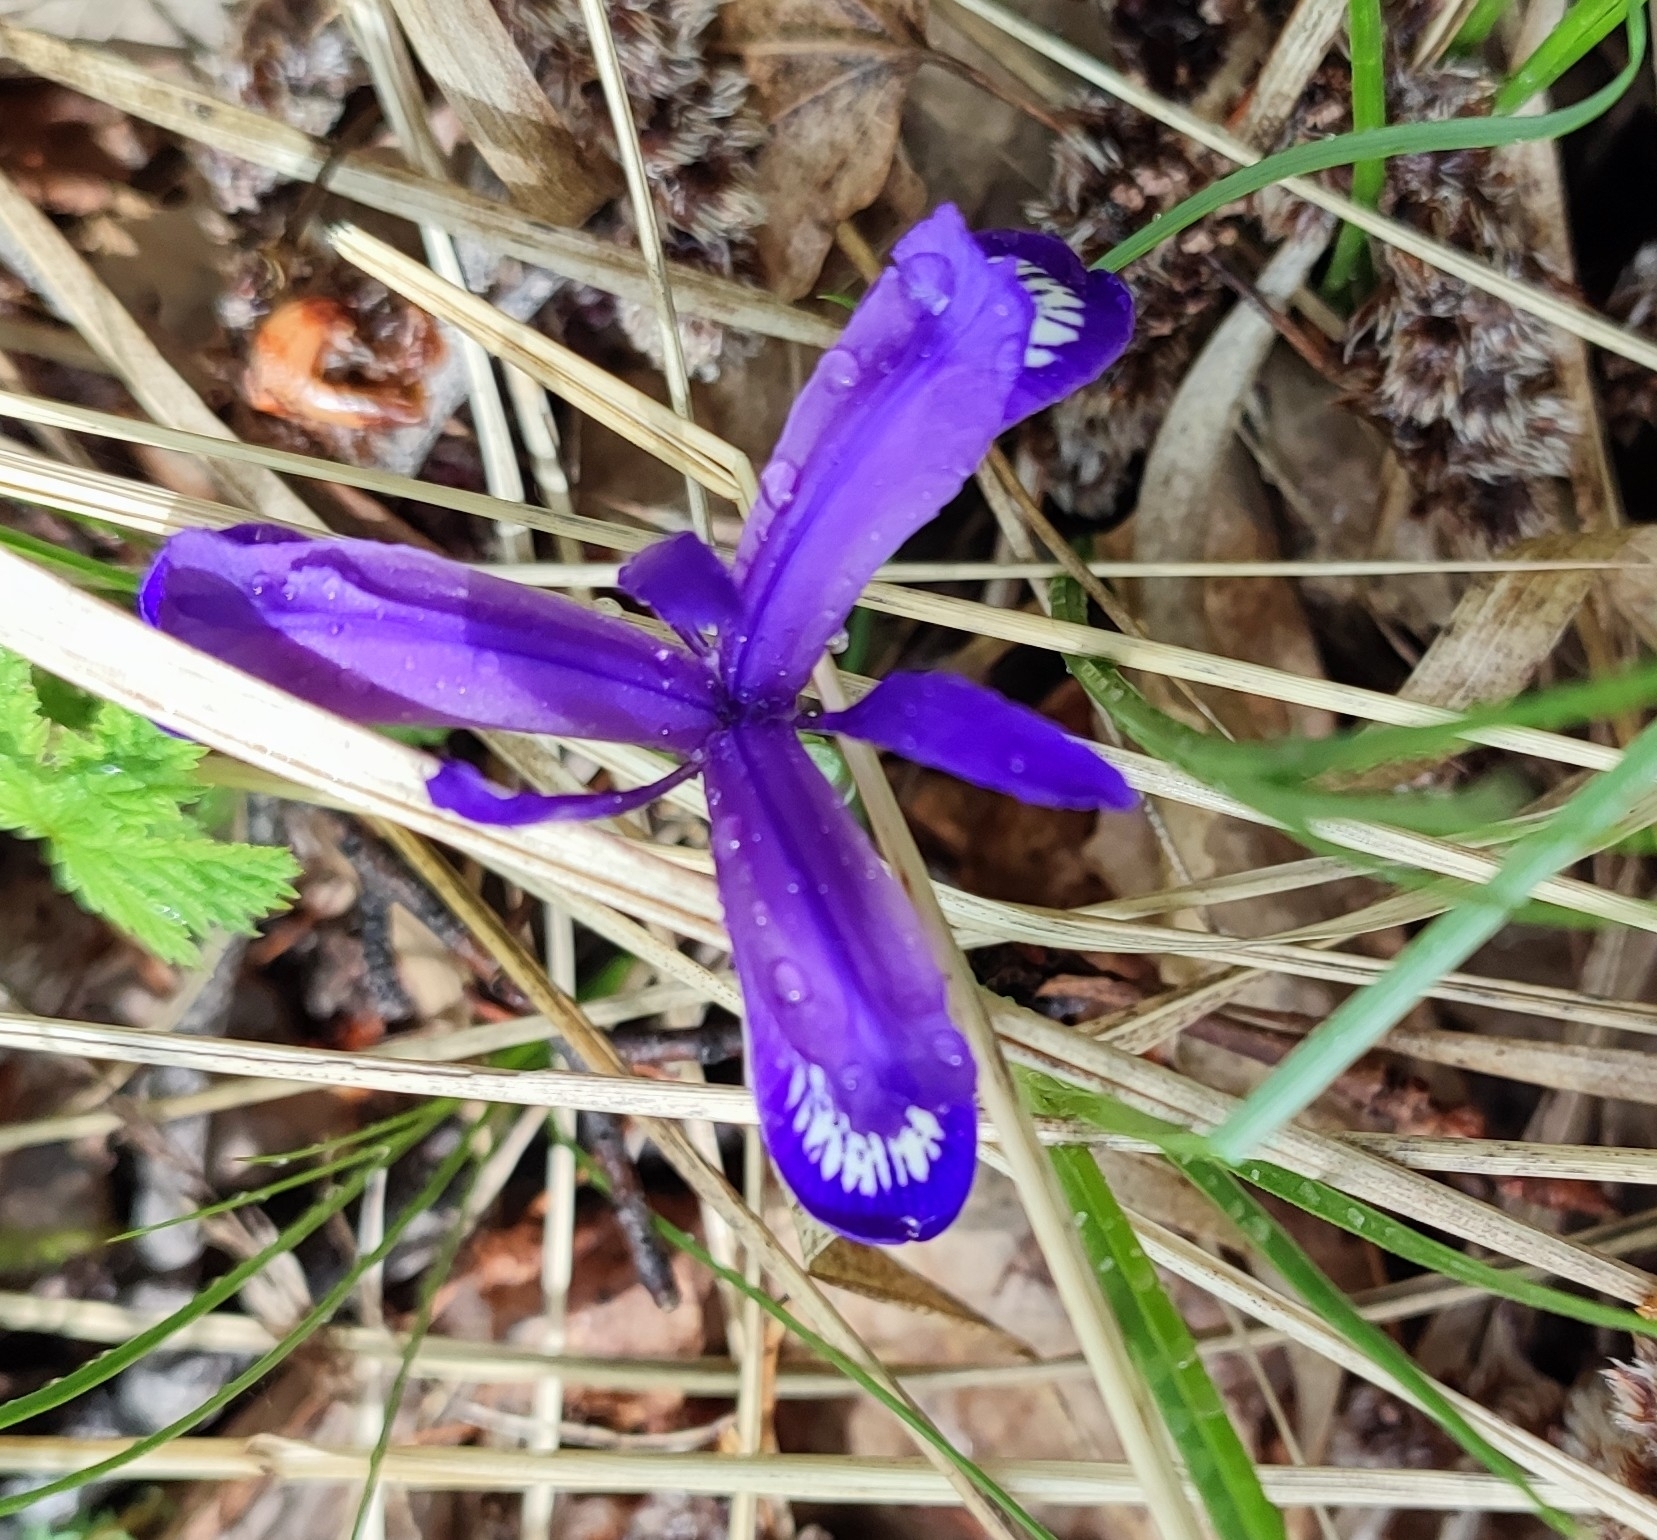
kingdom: Plantae
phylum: Tracheophyta
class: Liliopsida
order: Asparagales
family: Iridaceae
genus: Iris
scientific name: Iris ruthenica
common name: Purple-bract iris
